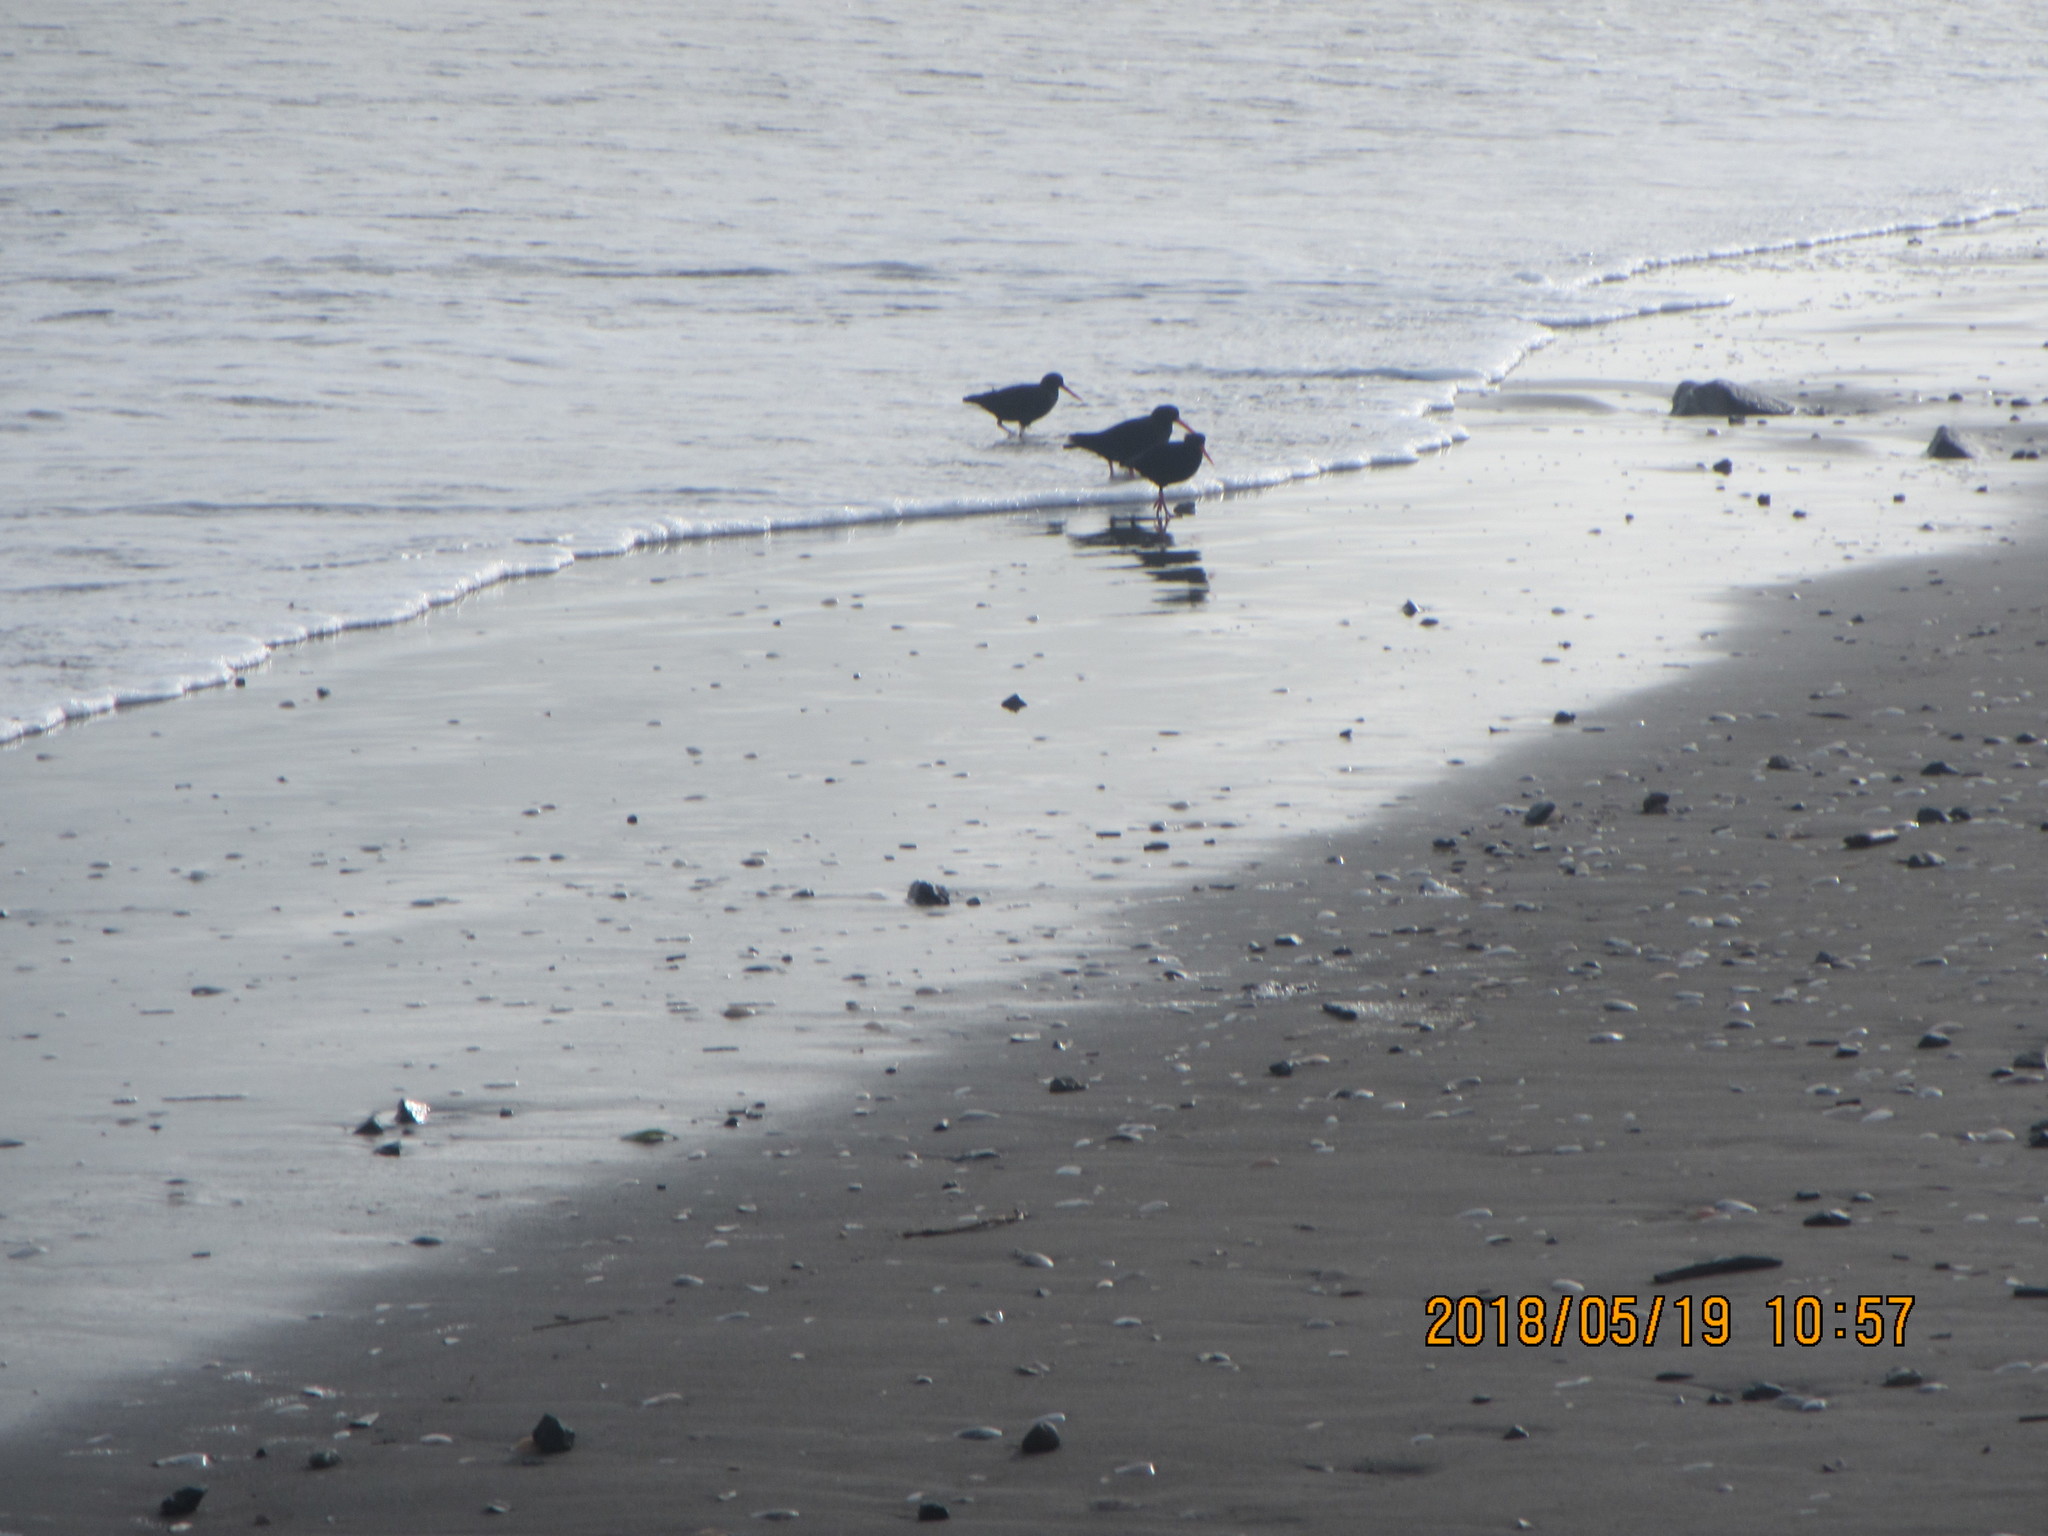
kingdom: Animalia
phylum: Chordata
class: Aves
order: Charadriiformes
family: Haematopodidae
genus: Haematopus
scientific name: Haematopus unicolor
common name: Variable oystercatcher
